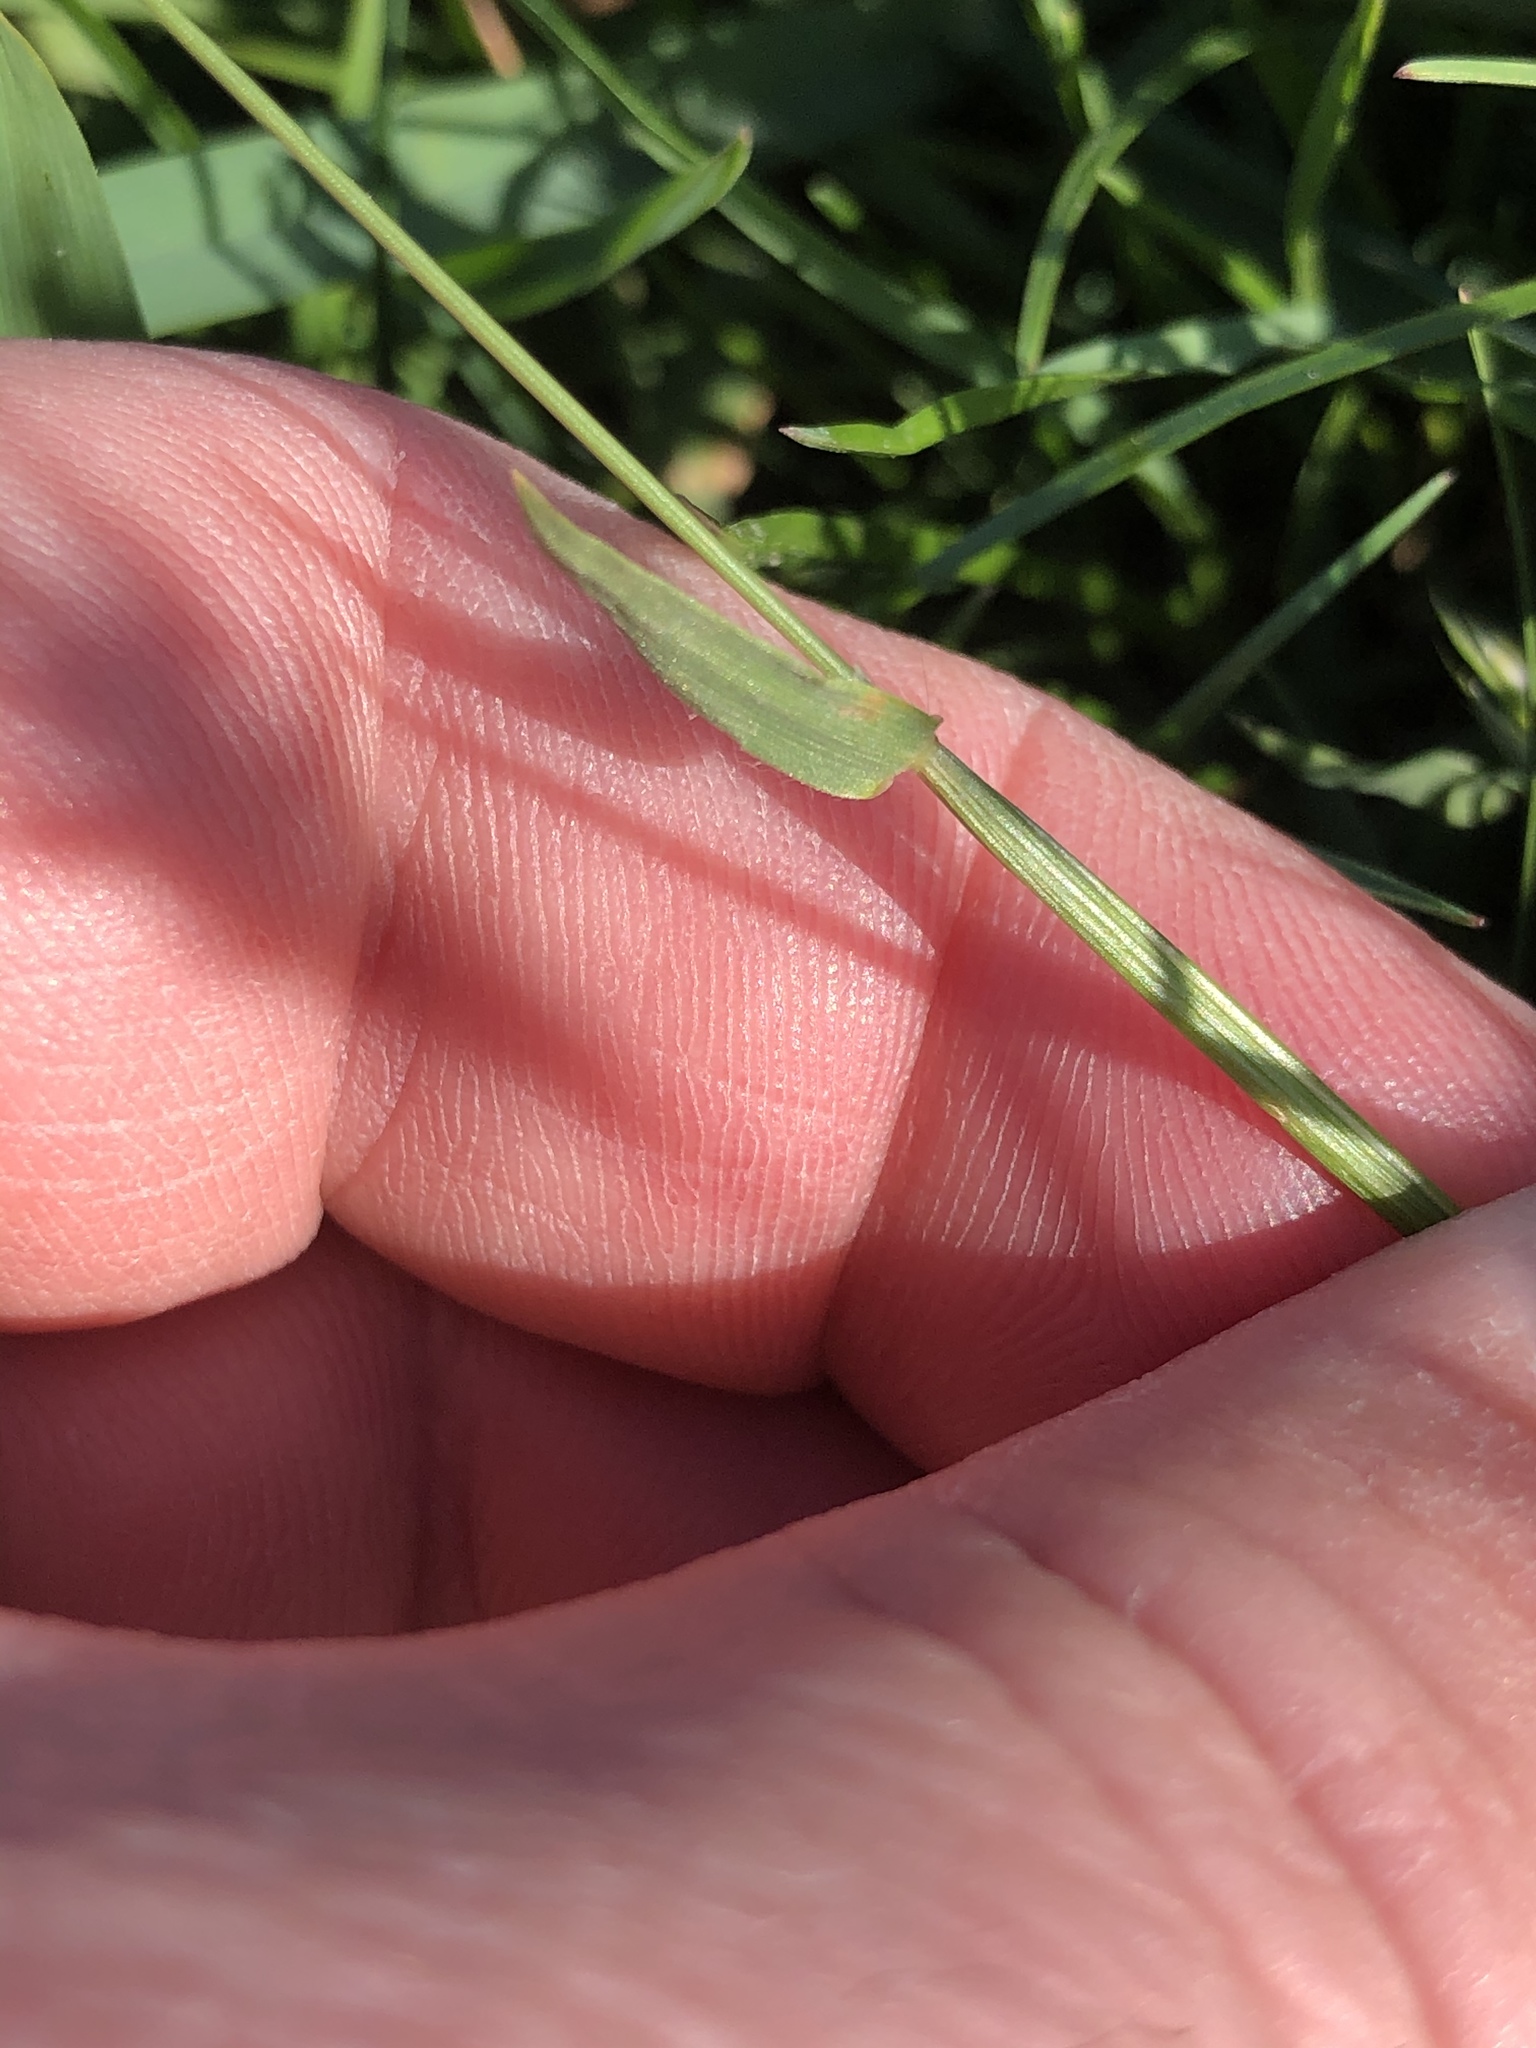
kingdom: Plantae
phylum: Tracheophyta
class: Liliopsida
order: Poales
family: Poaceae
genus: Anthoxanthum
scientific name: Anthoxanthum odoratum
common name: Sweet vernalgrass
